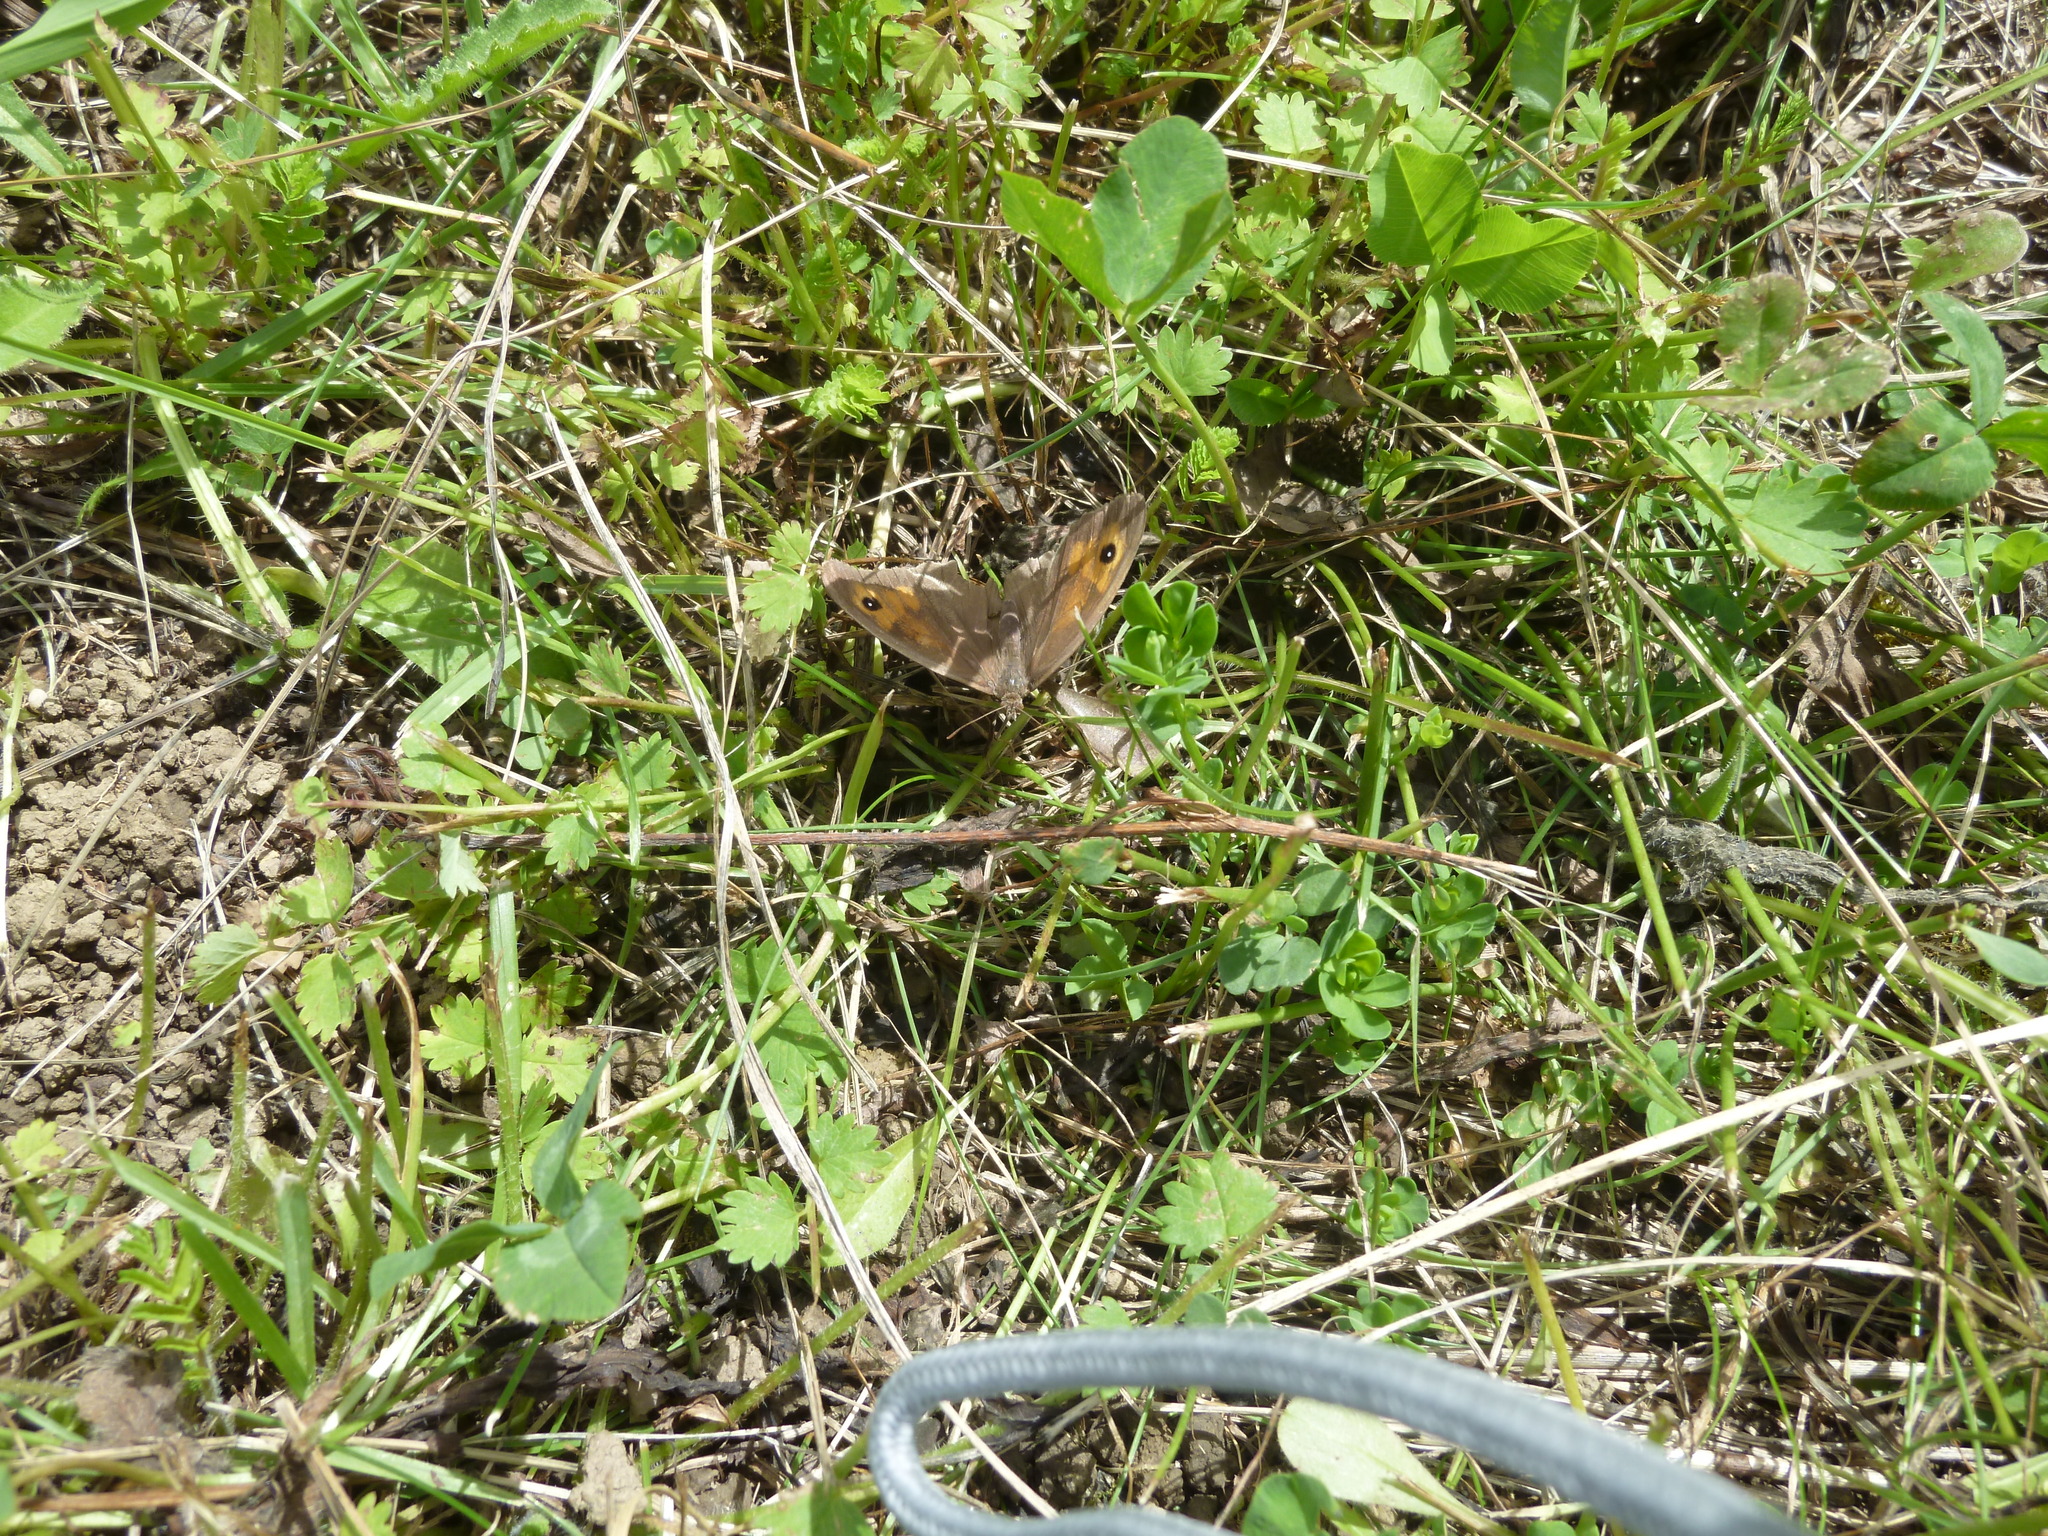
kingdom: Animalia
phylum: Arthropoda
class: Insecta
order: Lepidoptera
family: Nymphalidae
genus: Maniola
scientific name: Maniola jurtina
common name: Meadow brown
